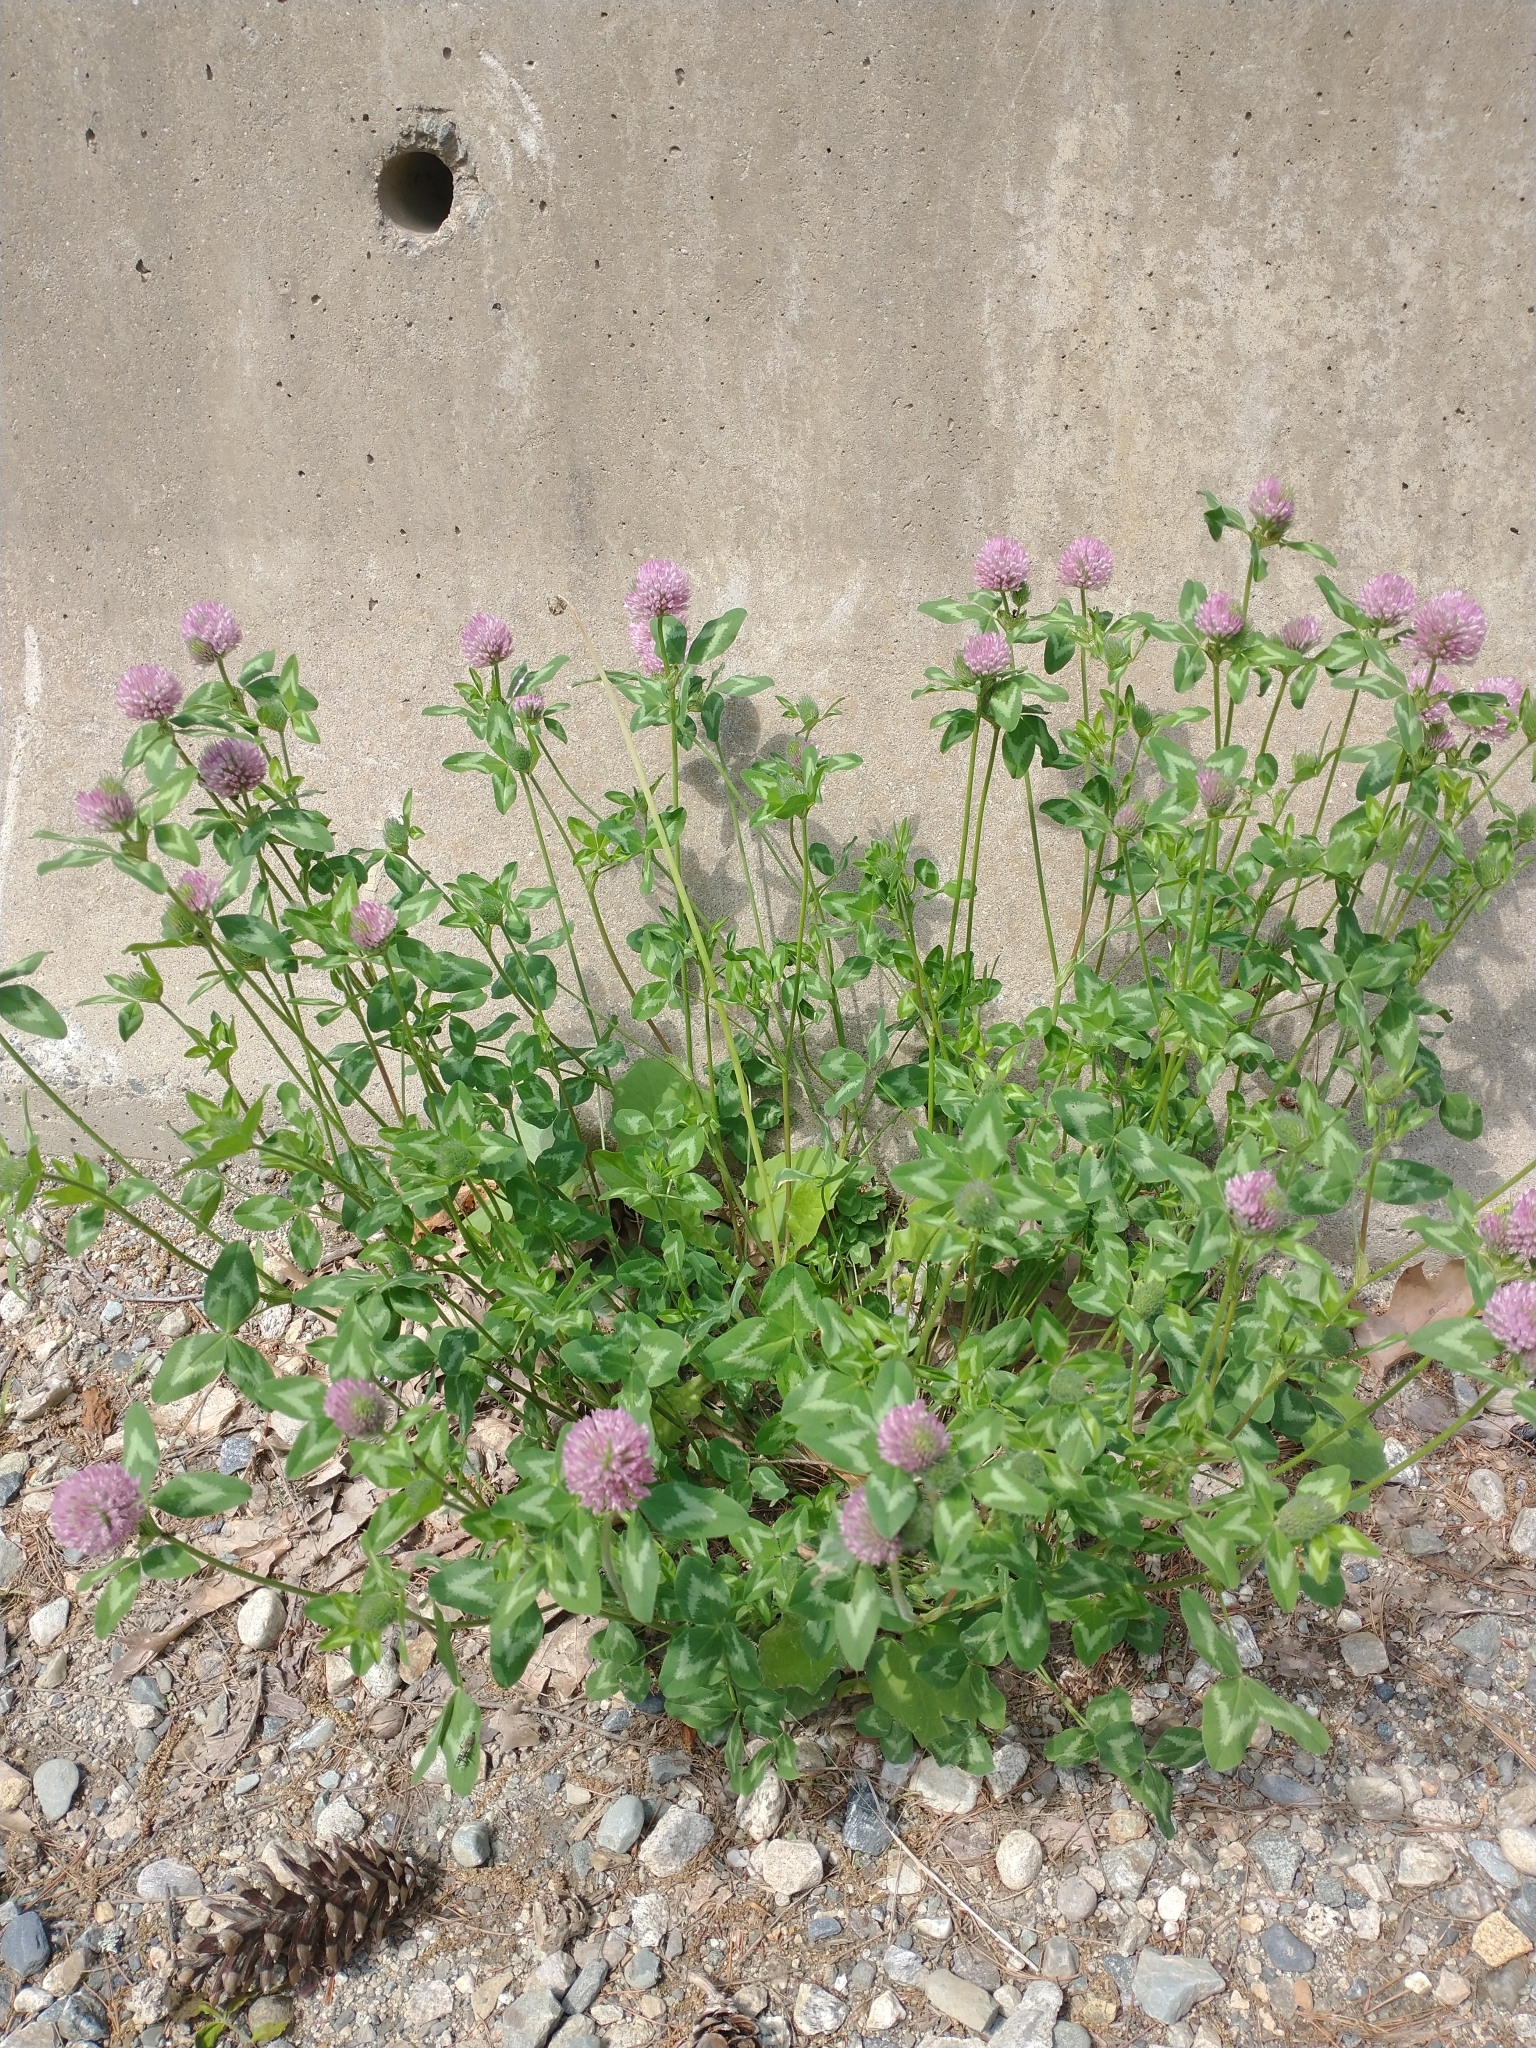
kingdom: Plantae
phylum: Tracheophyta
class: Magnoliopsida
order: Fabales
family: Fabaceae
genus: Trifolium
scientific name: Trifolium pratense
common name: Red clover
